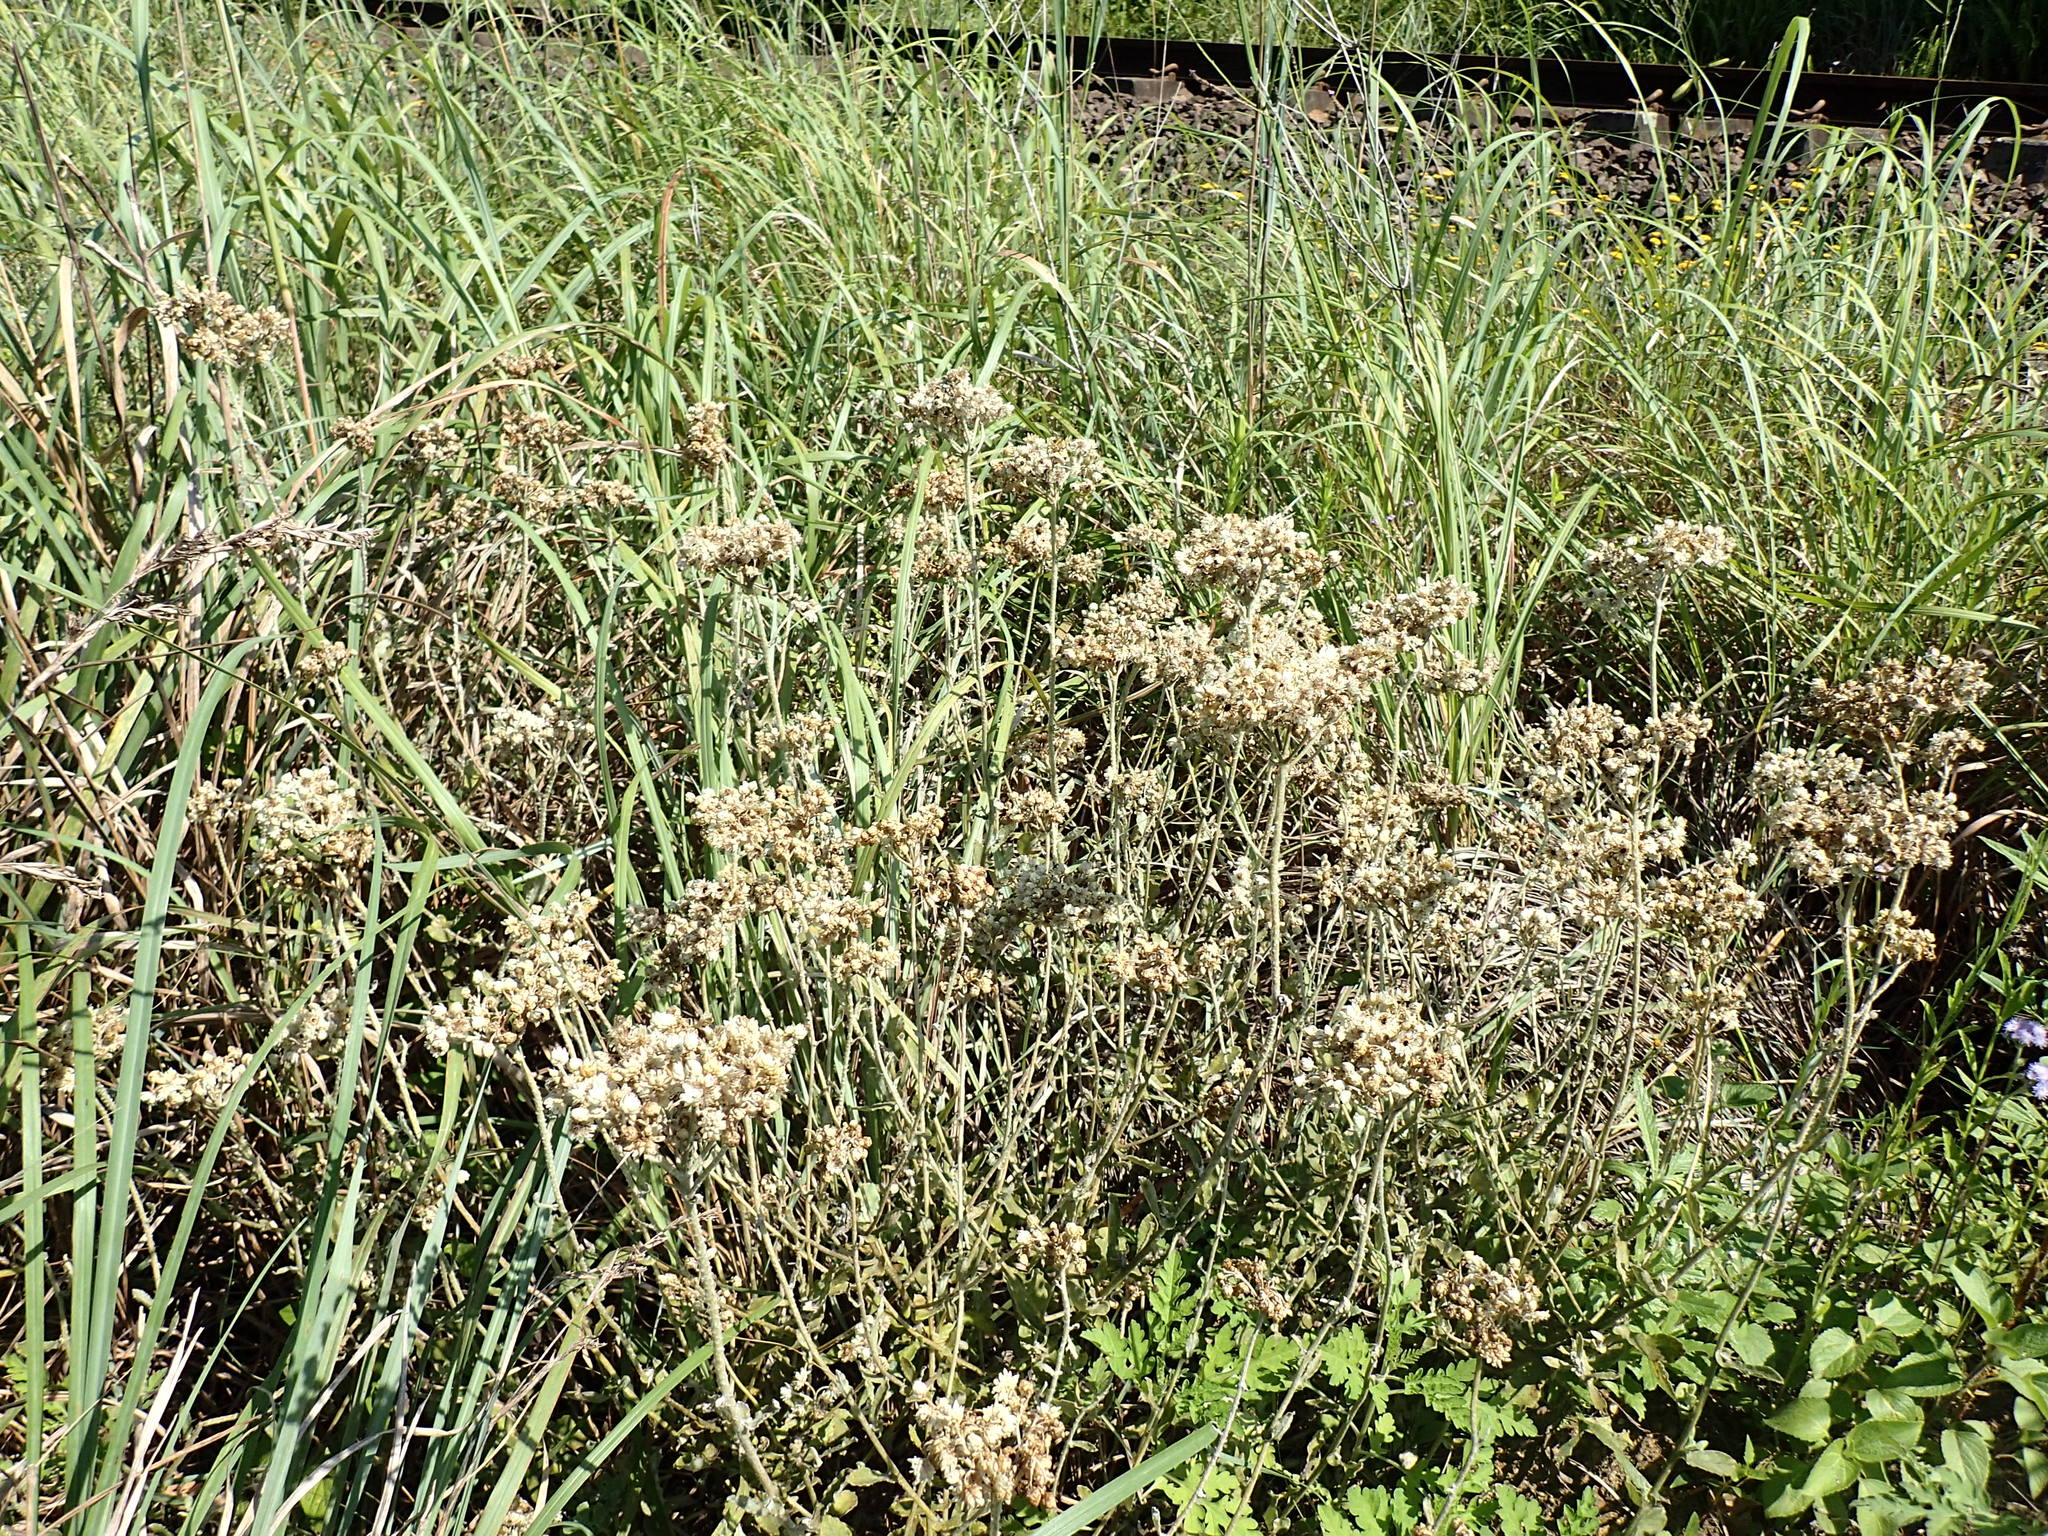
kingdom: Plantae
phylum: Tracheophyta
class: Magnoliopsida
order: Asterales
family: Asteraceae
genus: Helichrysum
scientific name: Helichrysum panduratum
